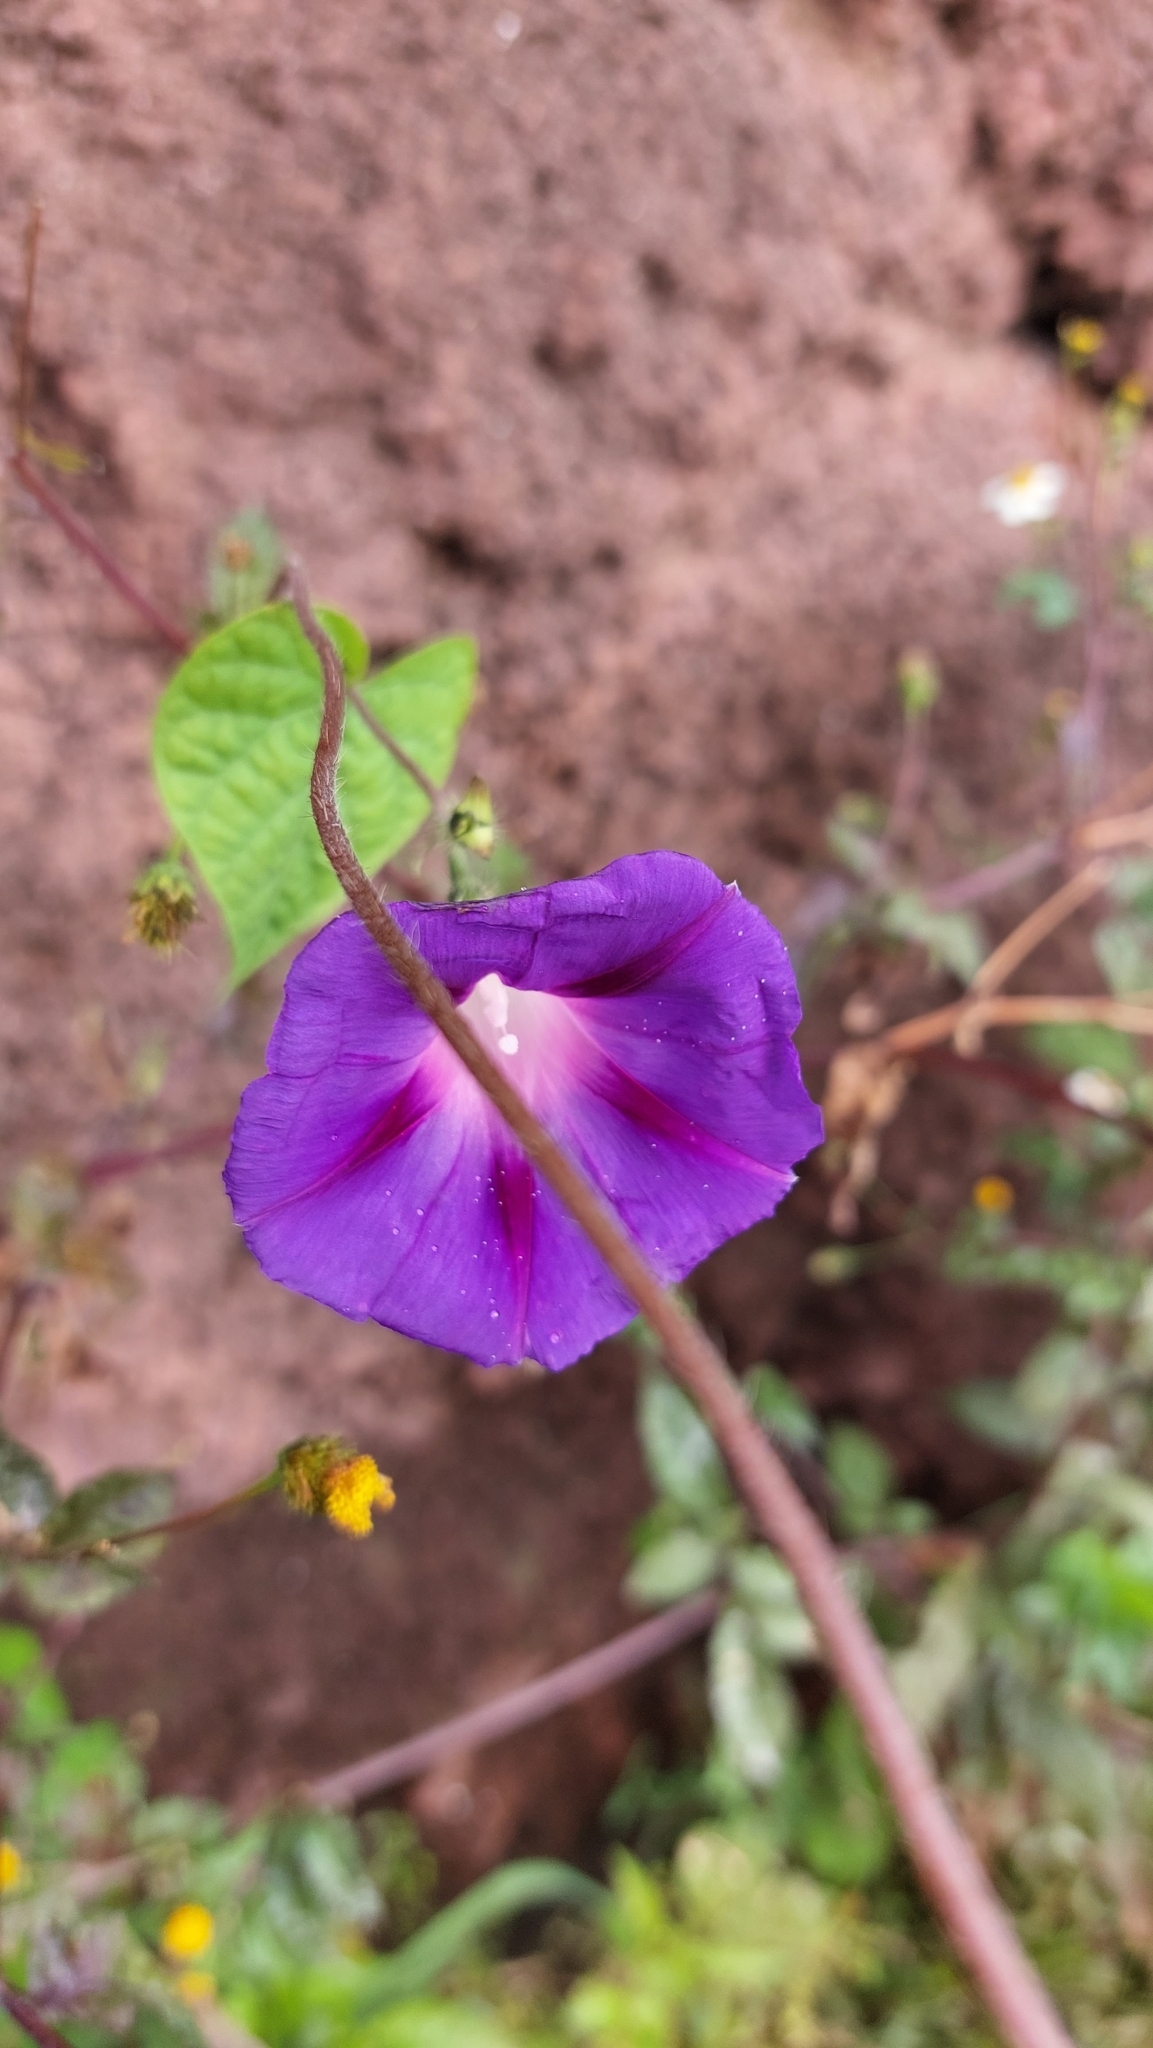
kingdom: Plantae
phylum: Tracheophyta
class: Magnoliopsida
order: Solanales
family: Convolvulaceae
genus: Ipomoea
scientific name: Ipomoea purpurea
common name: Common morning-glory
